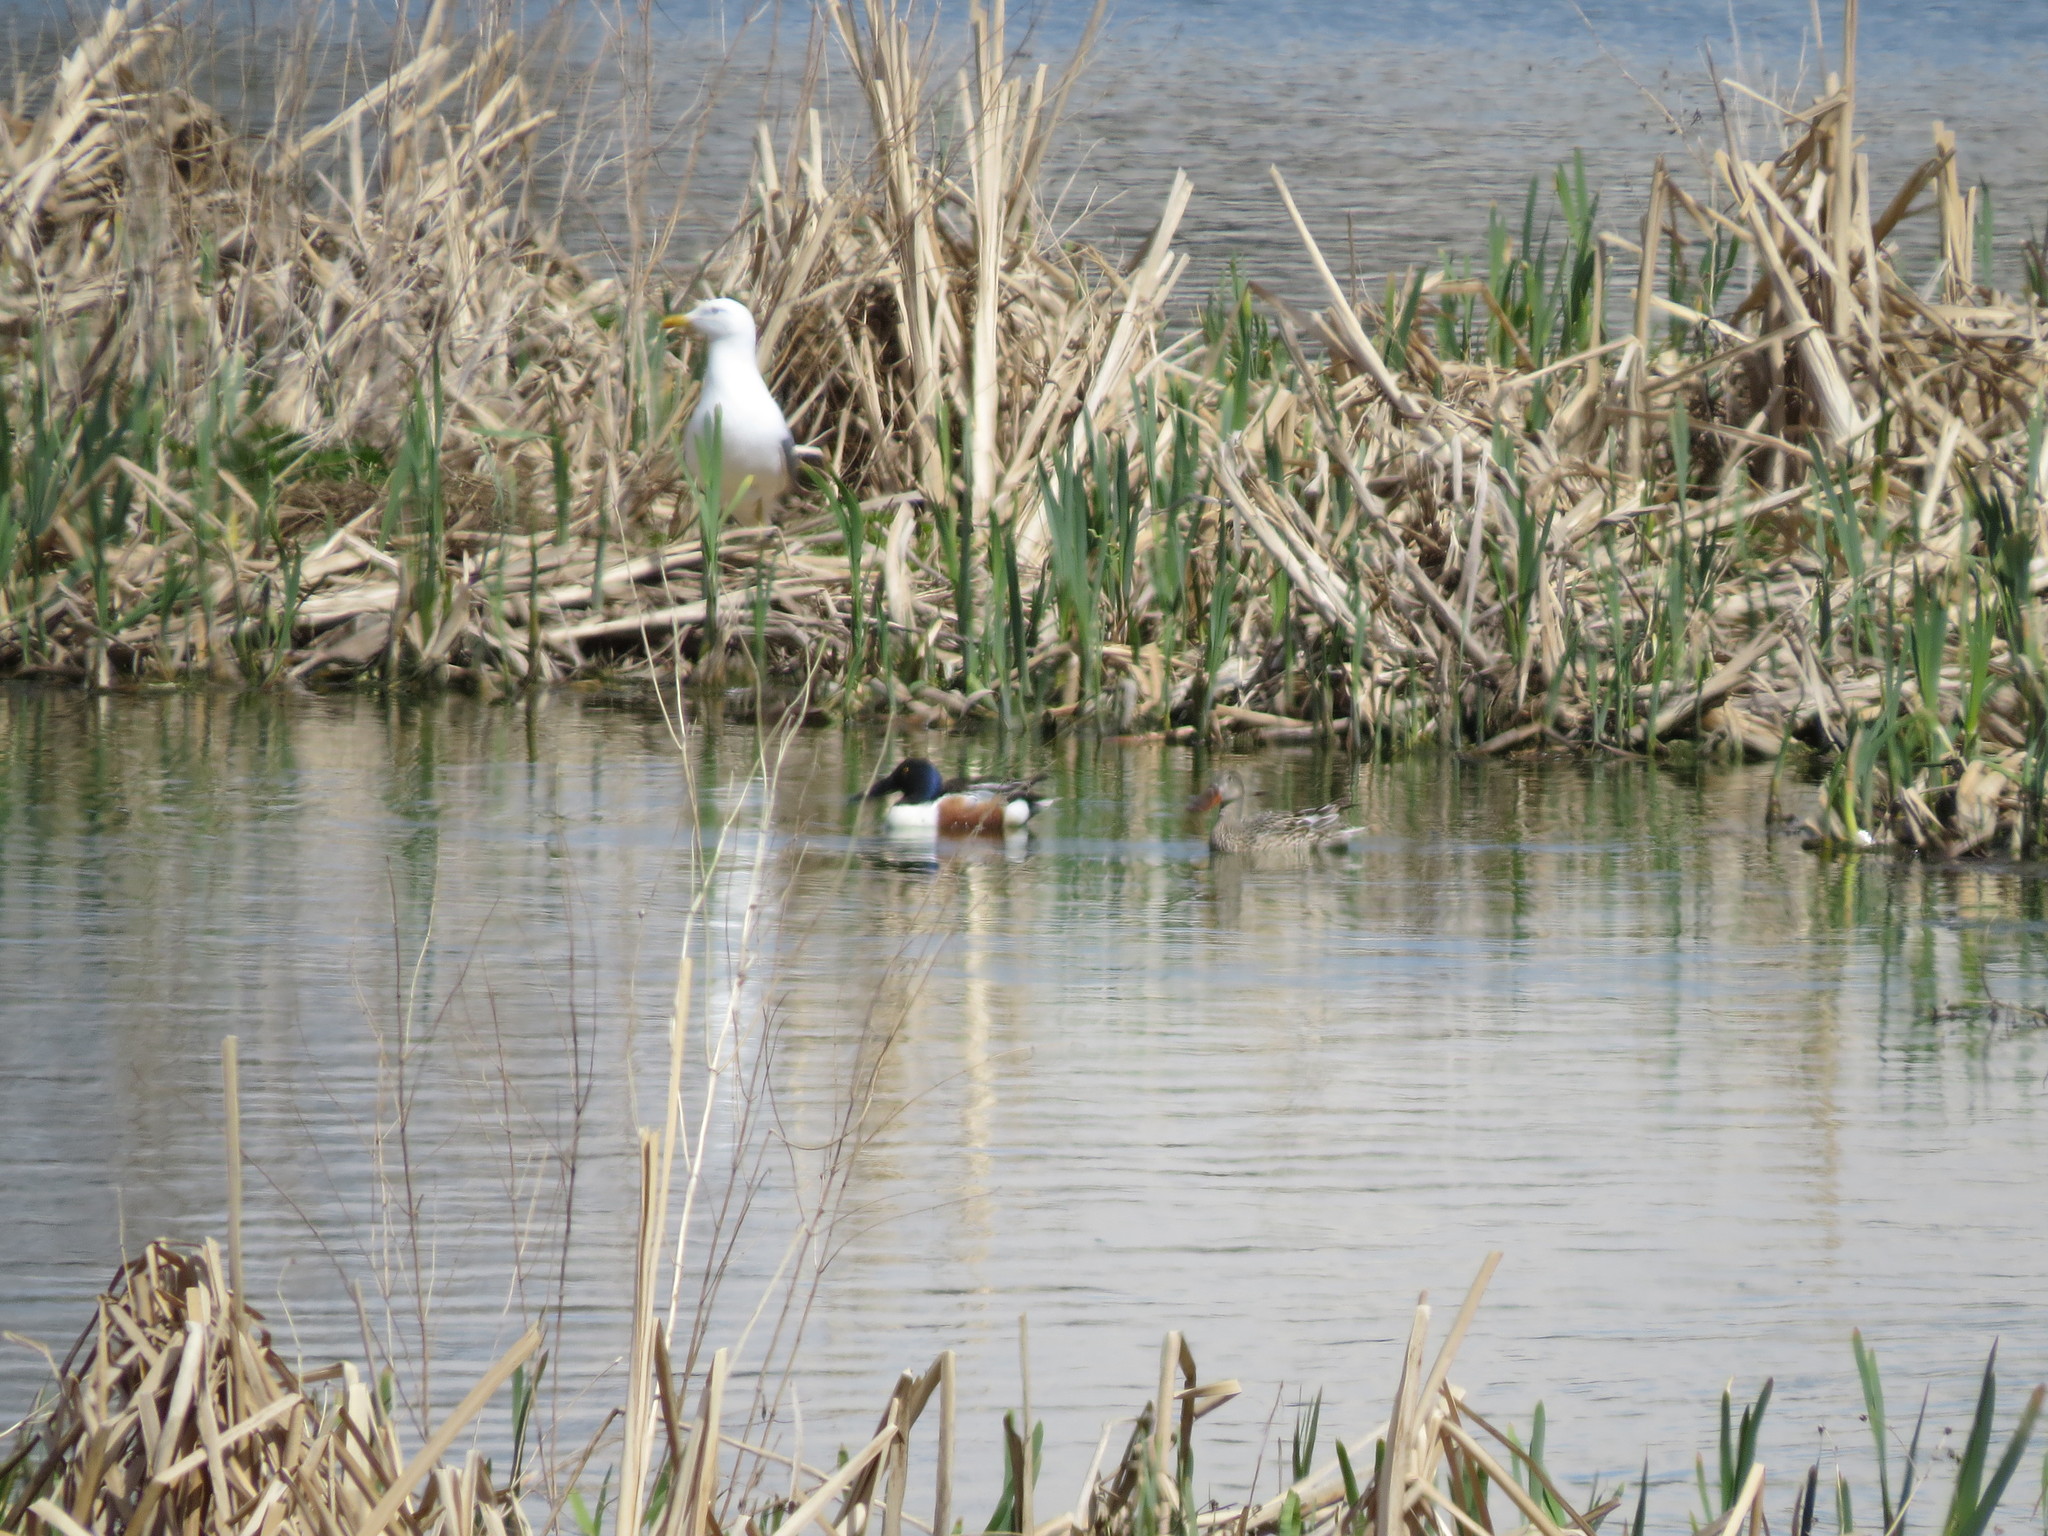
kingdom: Animalia
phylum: Chordata
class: Aves
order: Charadriiformes
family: Laridae
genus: Larus
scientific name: Larus fuscus
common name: Lesser black-backed gull
